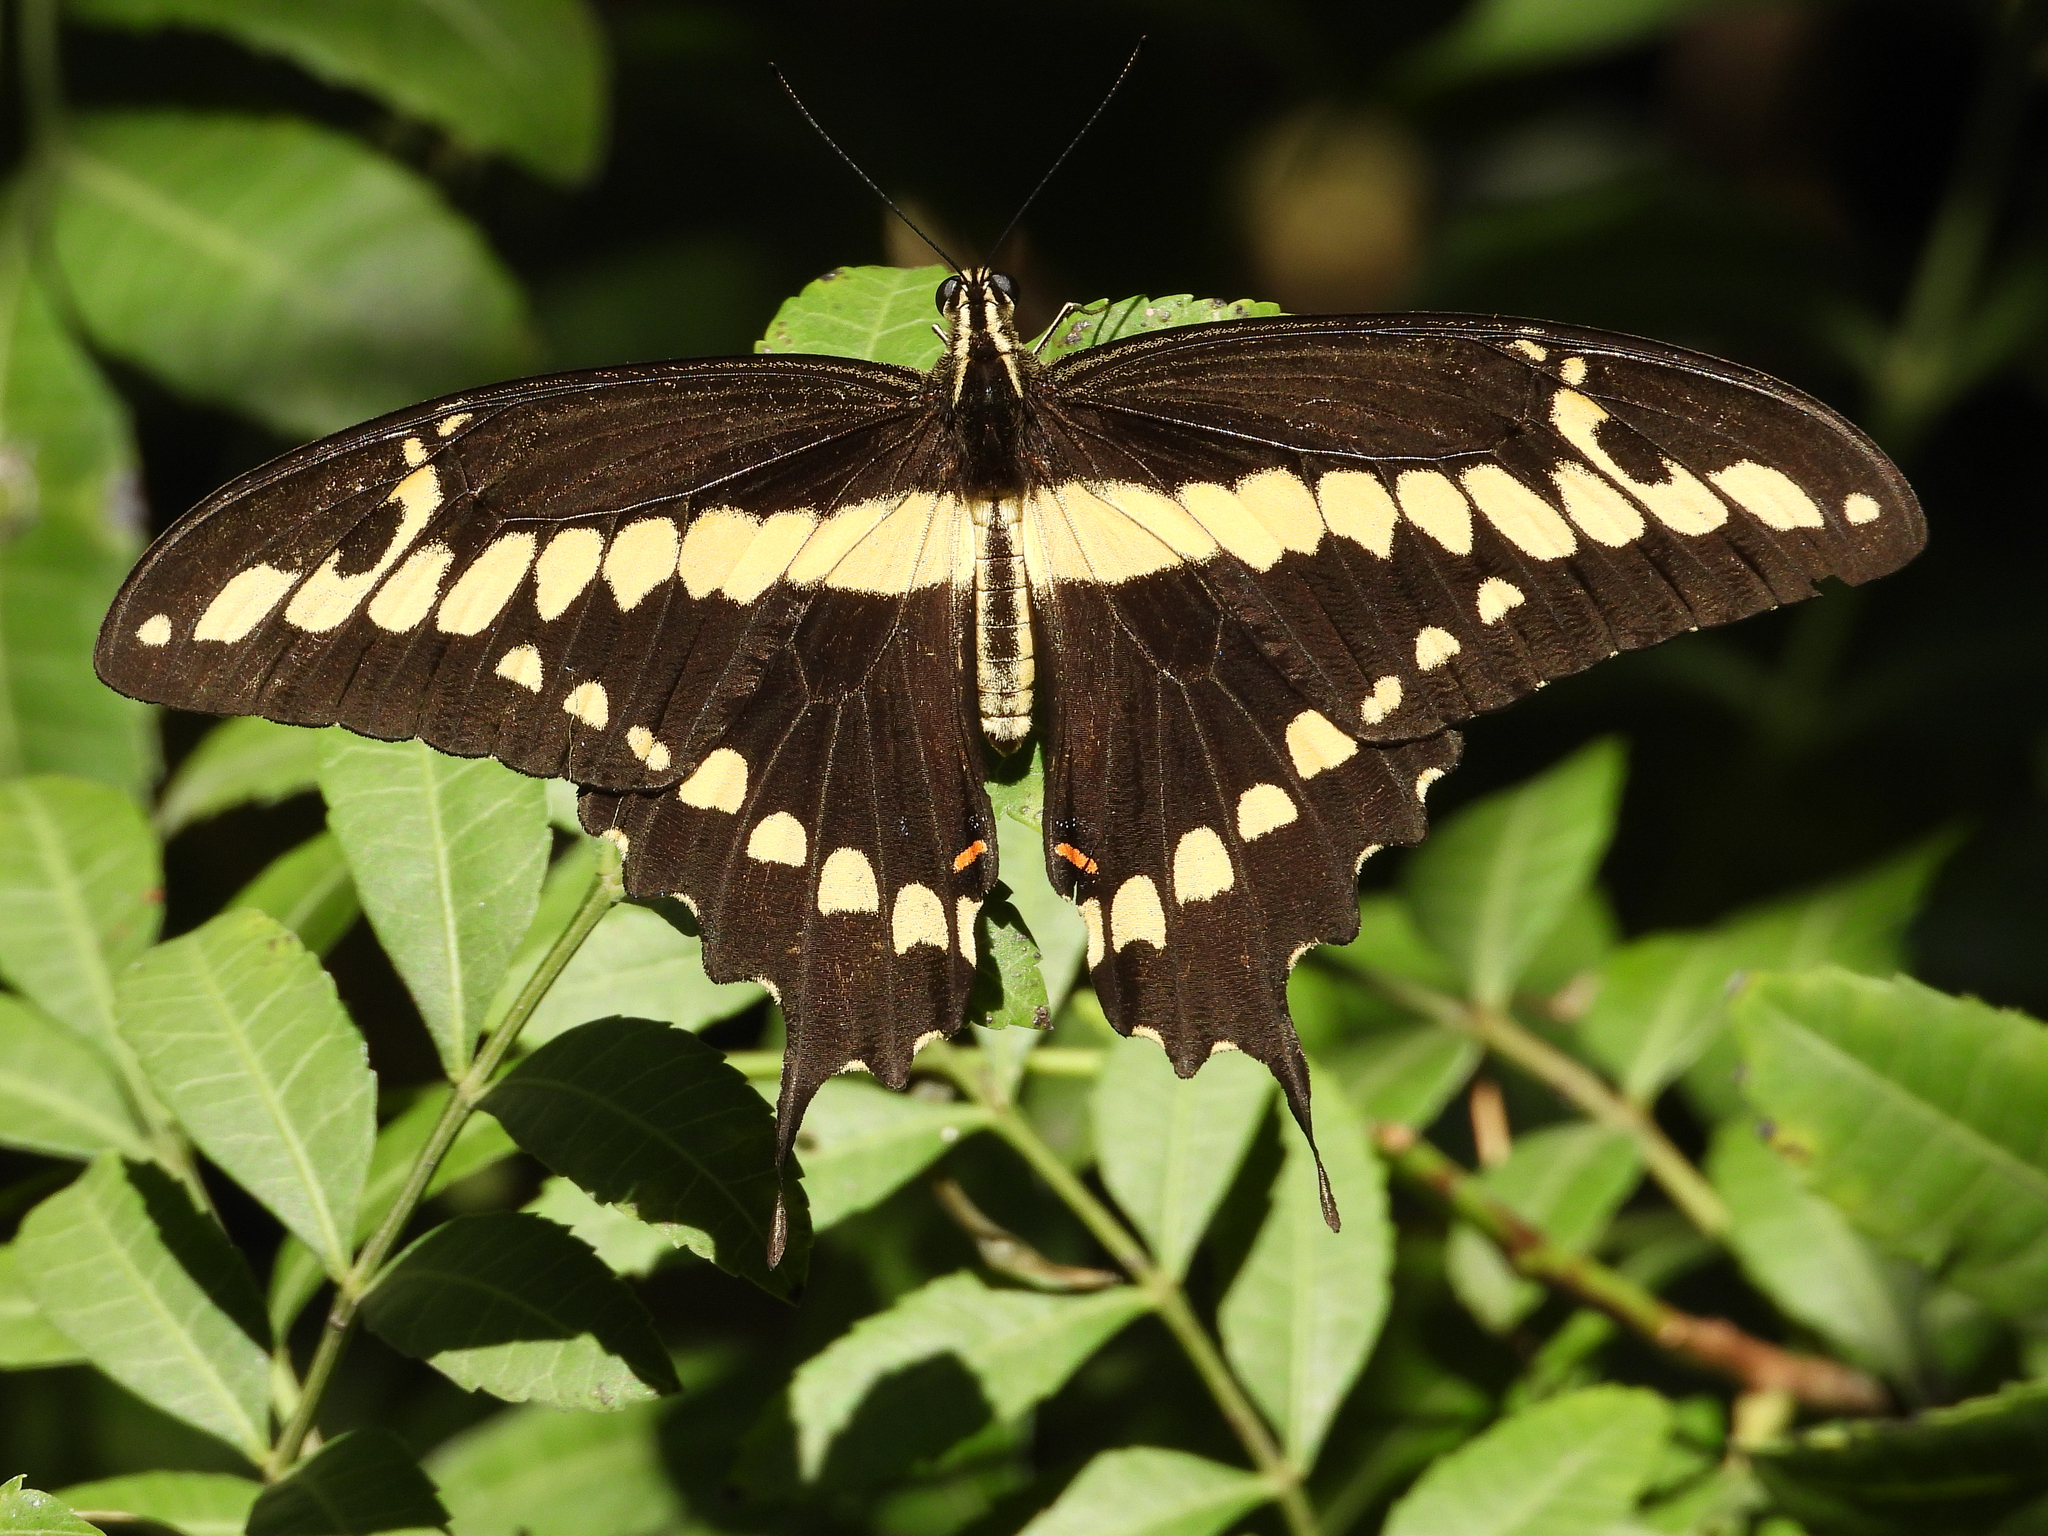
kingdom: Animalia
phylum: Arthropoda
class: Insecta
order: Lepidoptera
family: Papilionidae
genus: Papilio
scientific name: Papilio rumiko
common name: Western giant swallowtail
